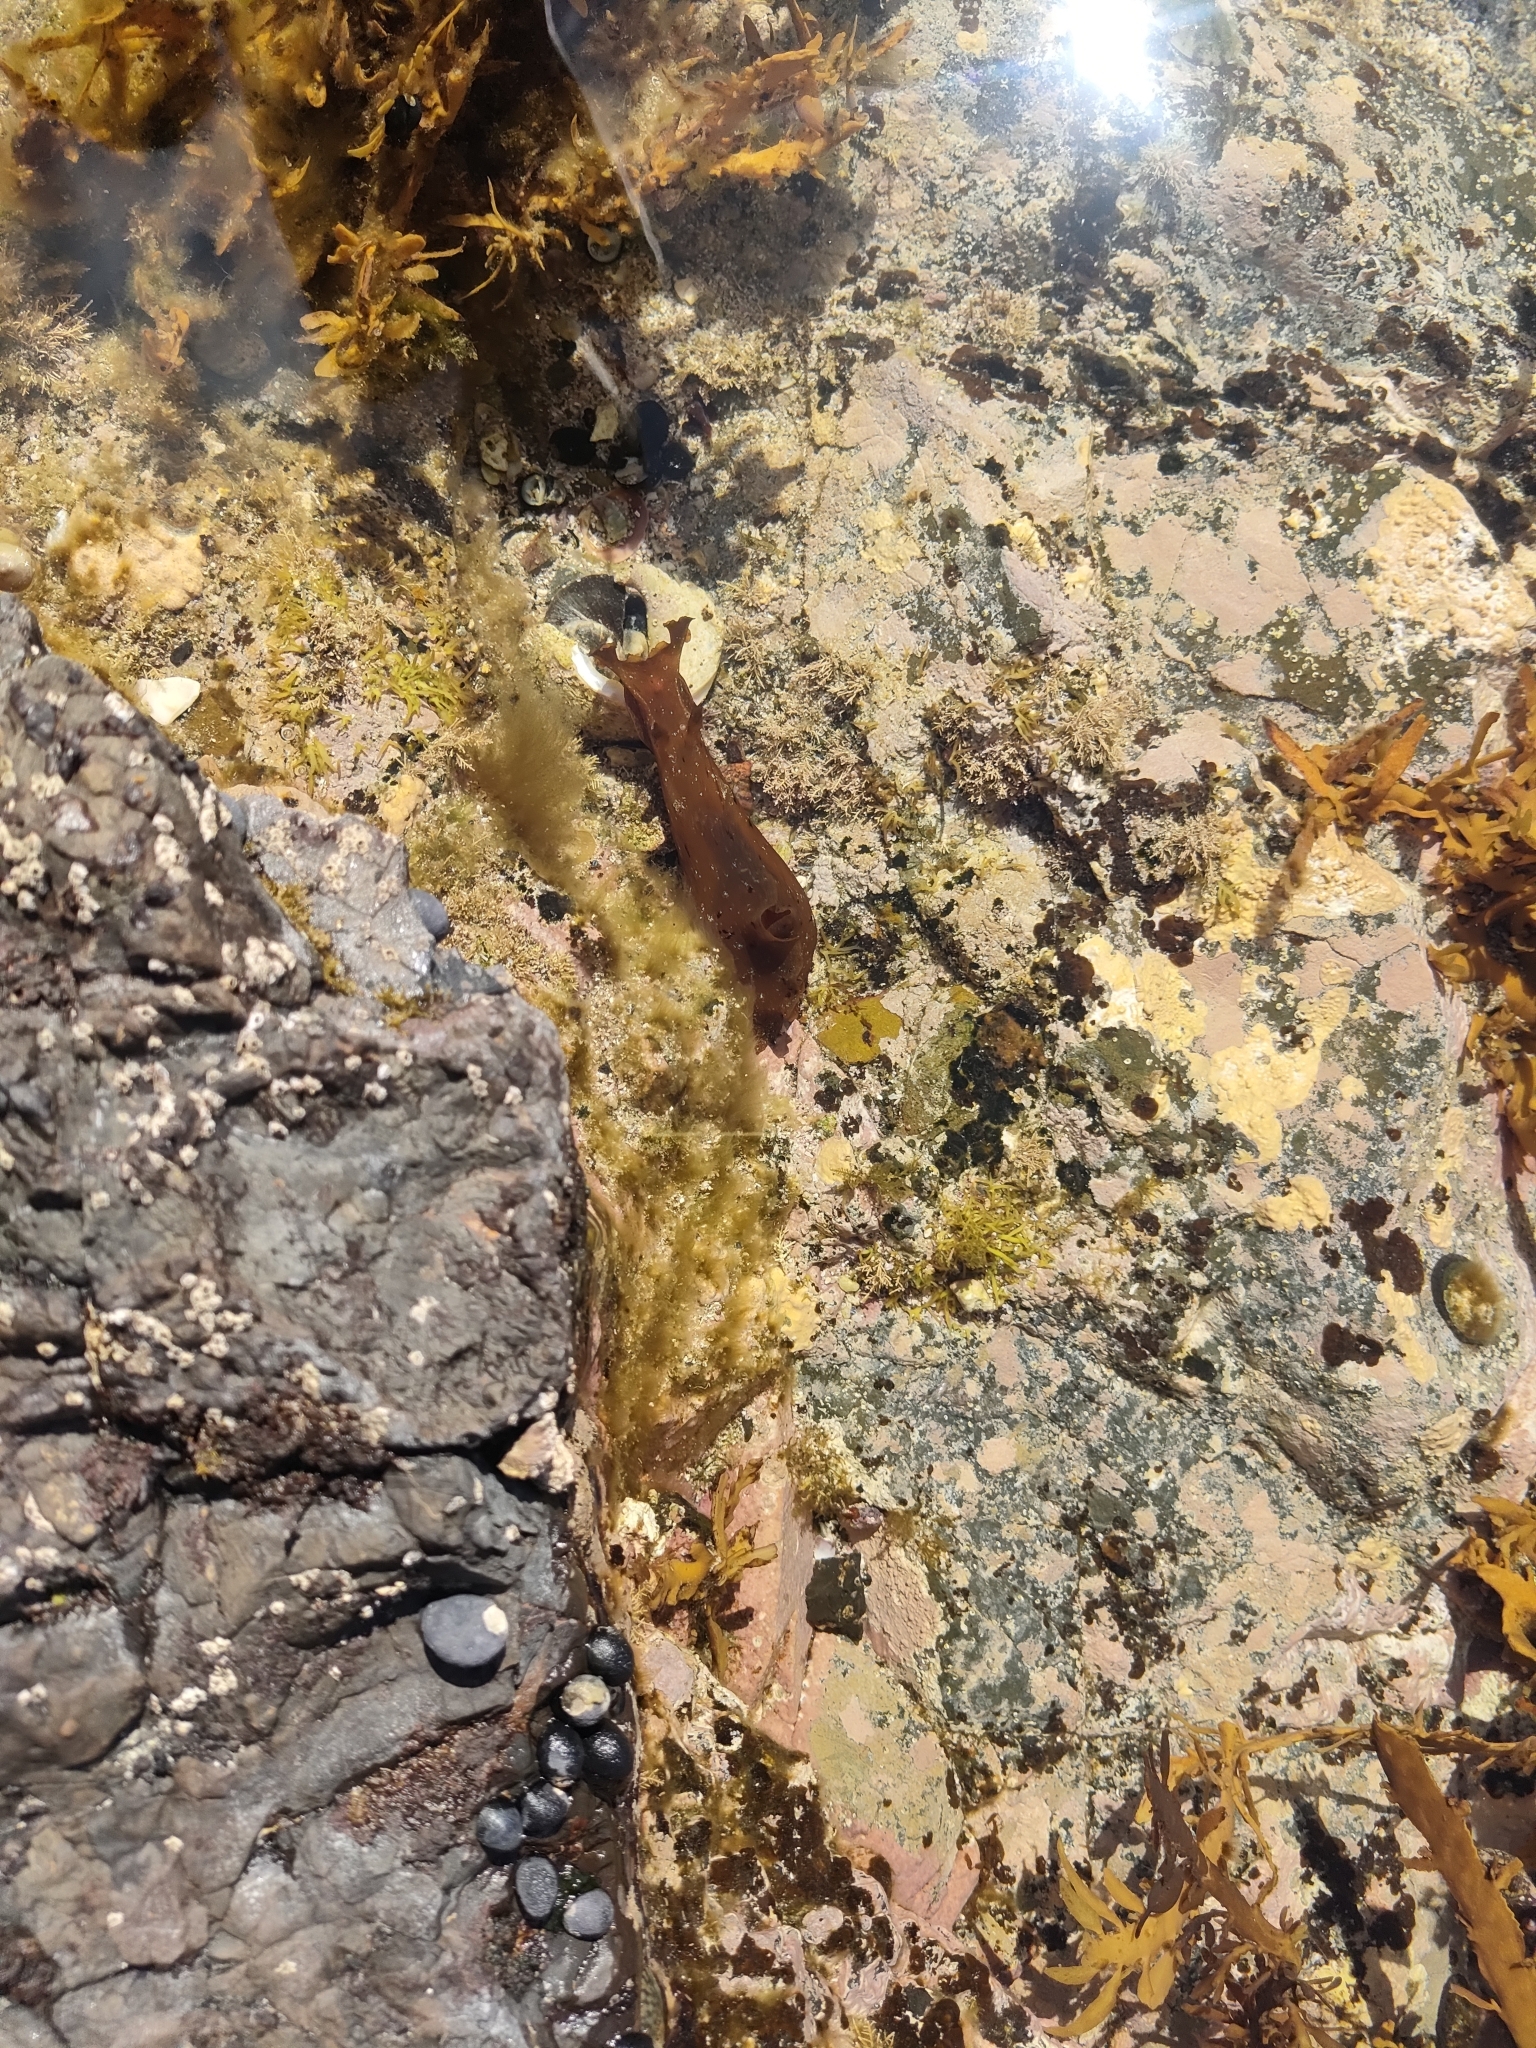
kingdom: Animalia
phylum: Mollusca
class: Gastropoda
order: Aplysiida
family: Aplysiidae
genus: Aplysia
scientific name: Aplysia juliana
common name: Walking sea hare
